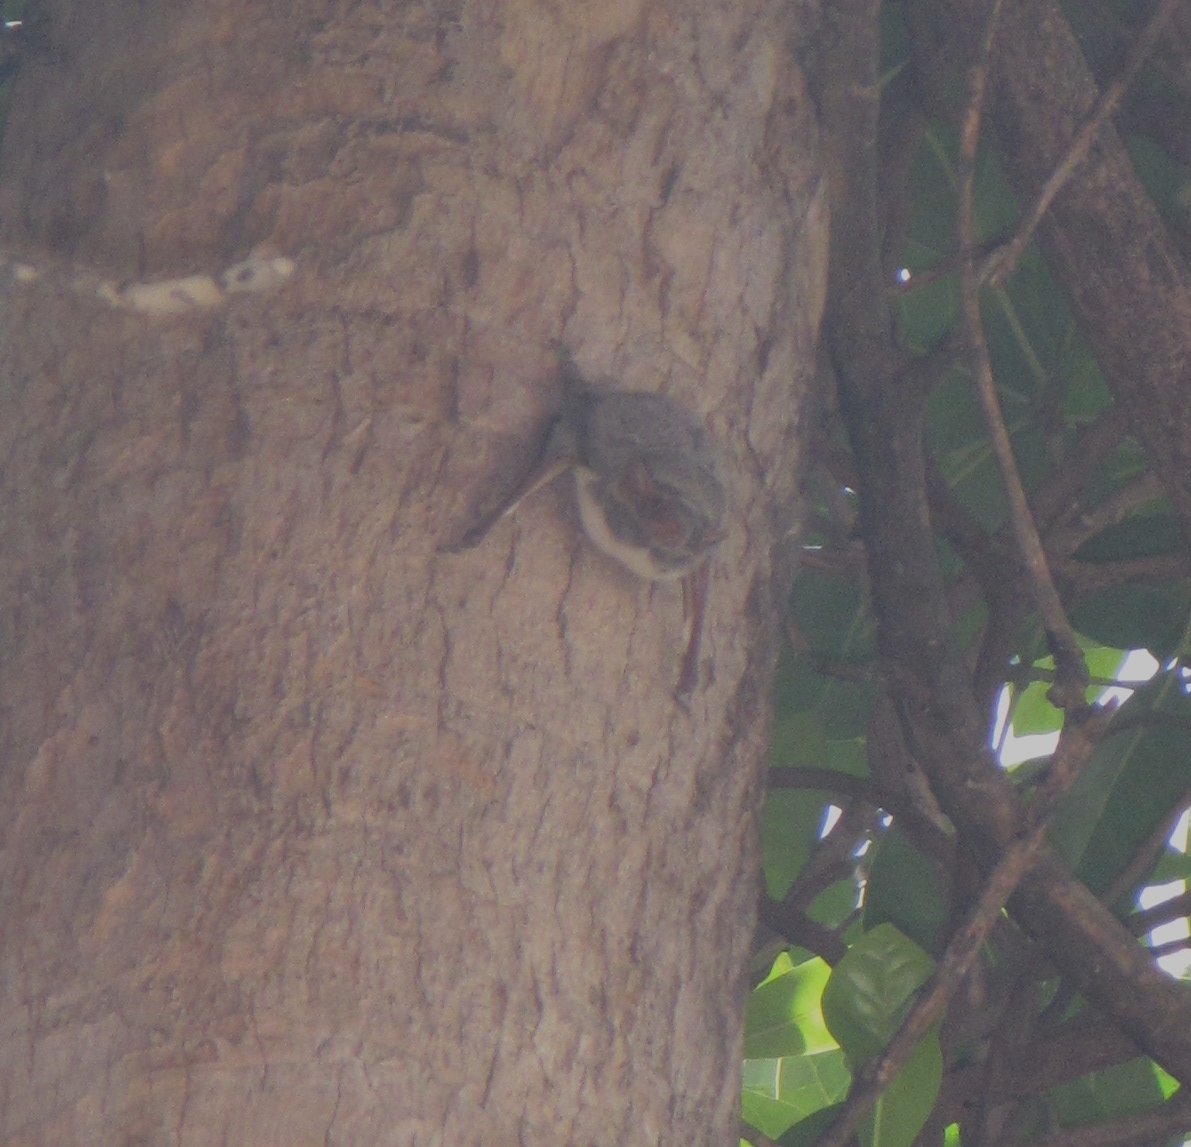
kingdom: Animalia
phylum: Chordata
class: Mammalia
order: Chiroptera
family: Emballonuridae
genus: Taphozous
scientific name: Taphozous mauritianus
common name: Mauritian tomb bat
